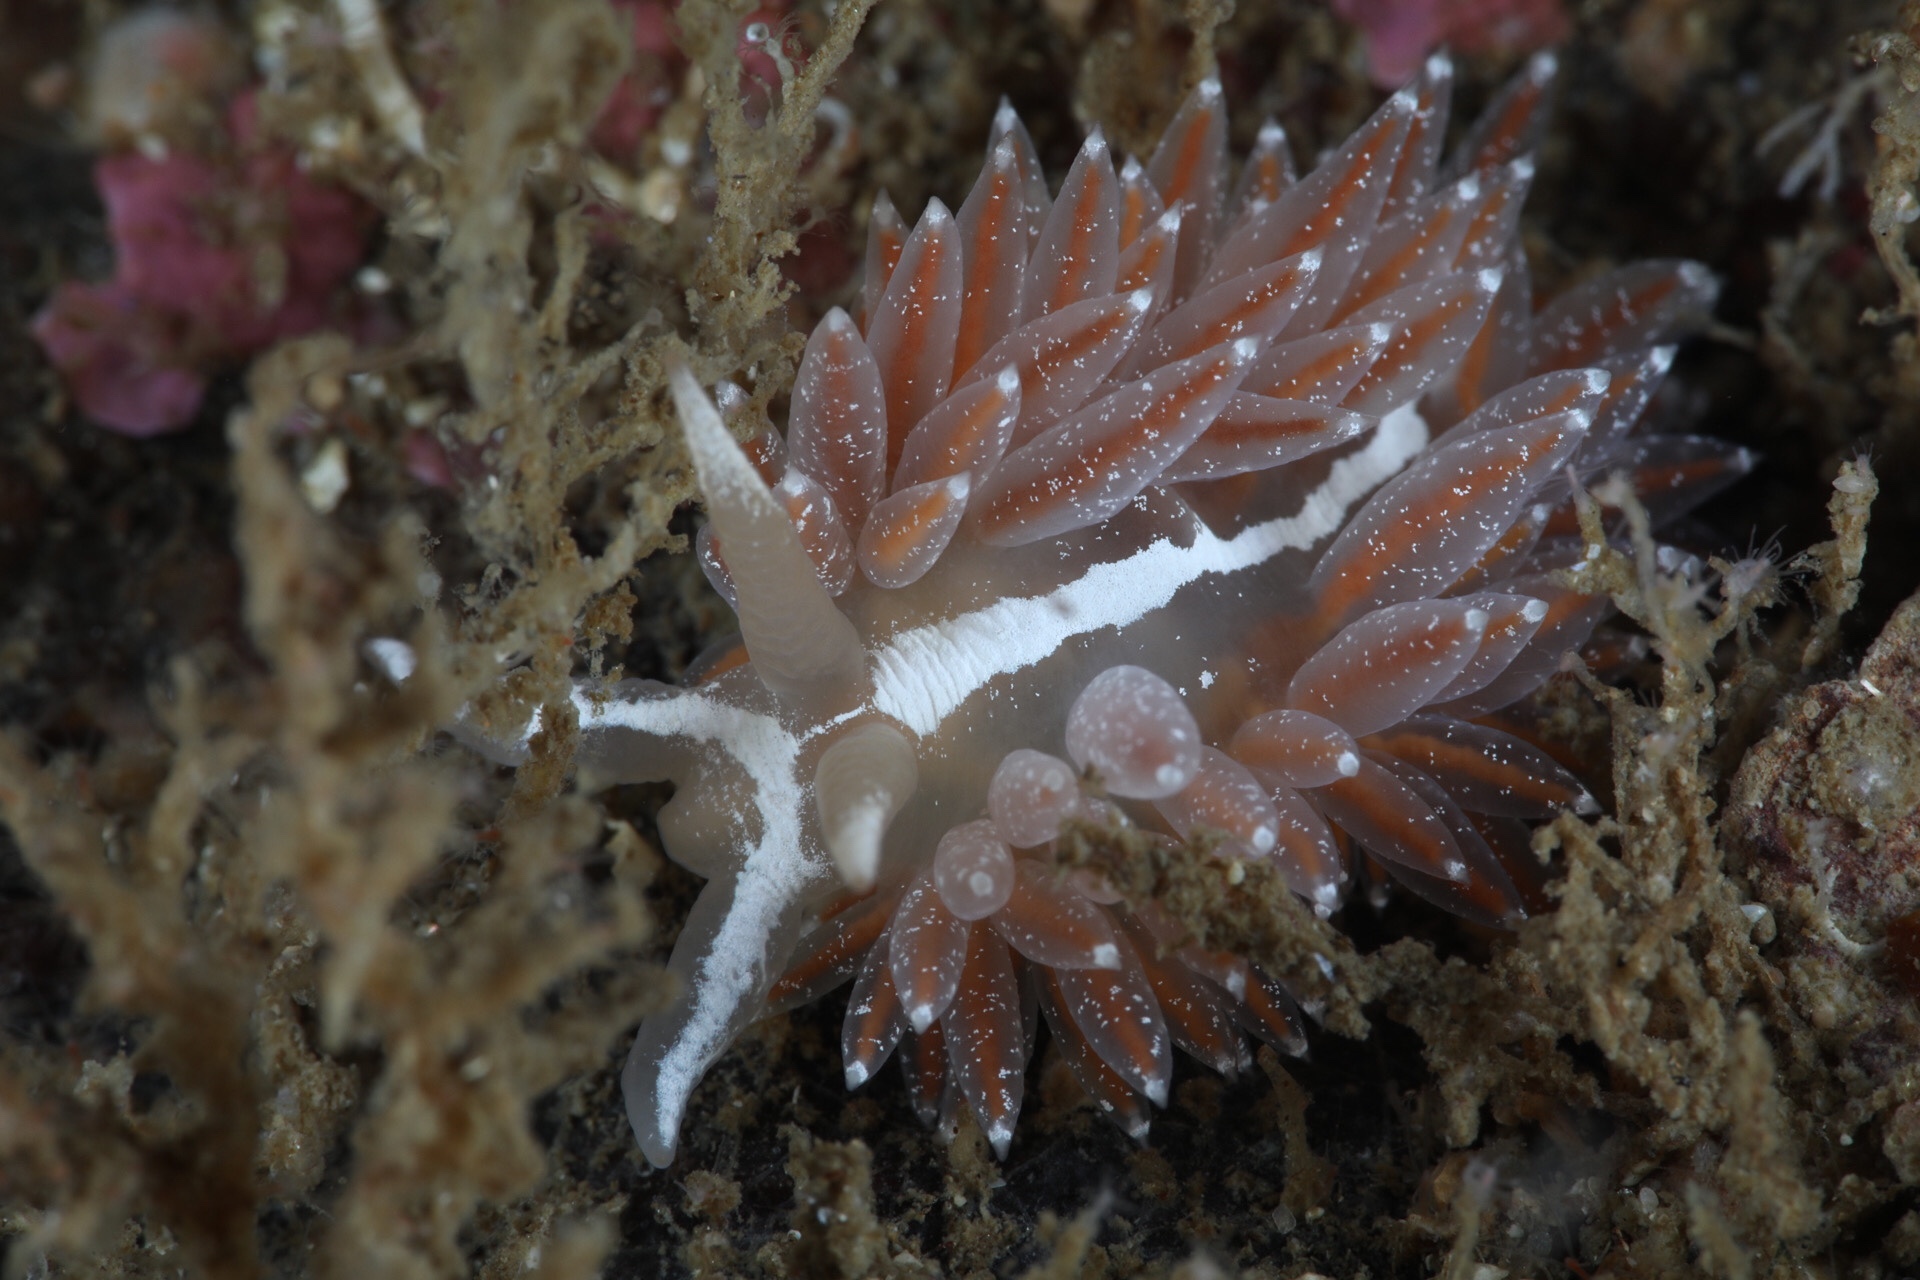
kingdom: Animalia
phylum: Mollusca
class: Gastropoda
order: Nudibranchia
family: Coryphellidae
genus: Coryphella
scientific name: Coryphella orjani
